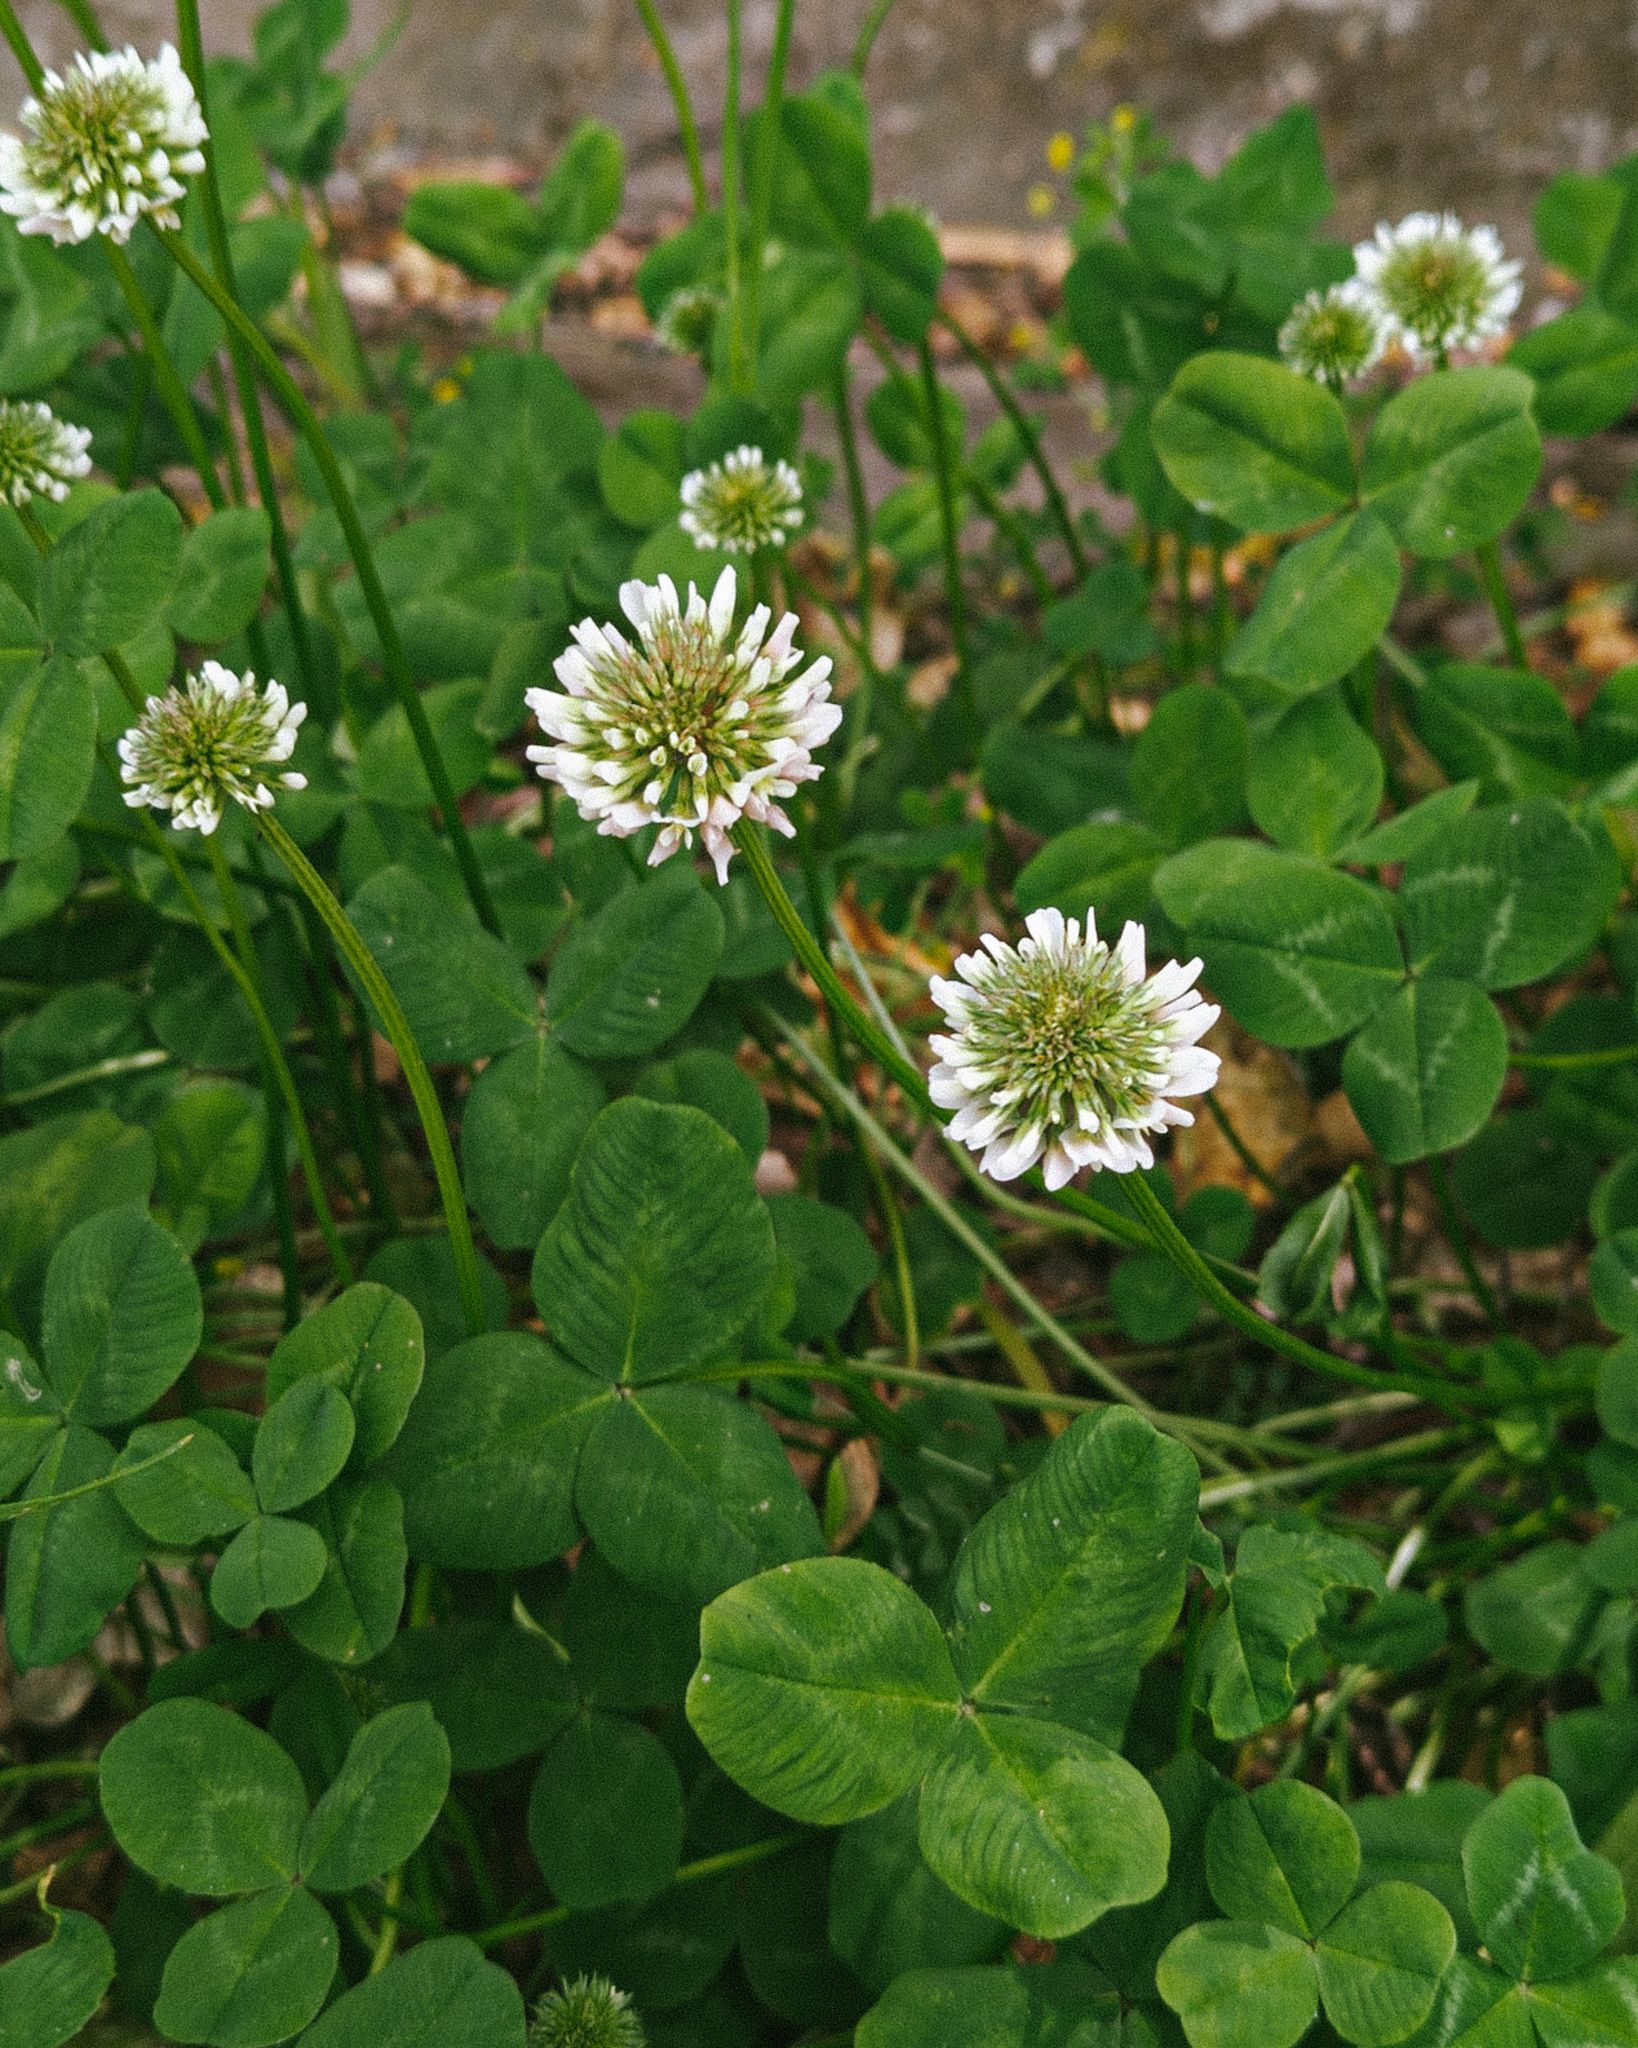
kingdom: Plantae
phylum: Tracheophyta
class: Magnoliopsida
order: Fabales
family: Fabaceae
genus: Trifolium
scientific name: Trifolium repens
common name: White clover
